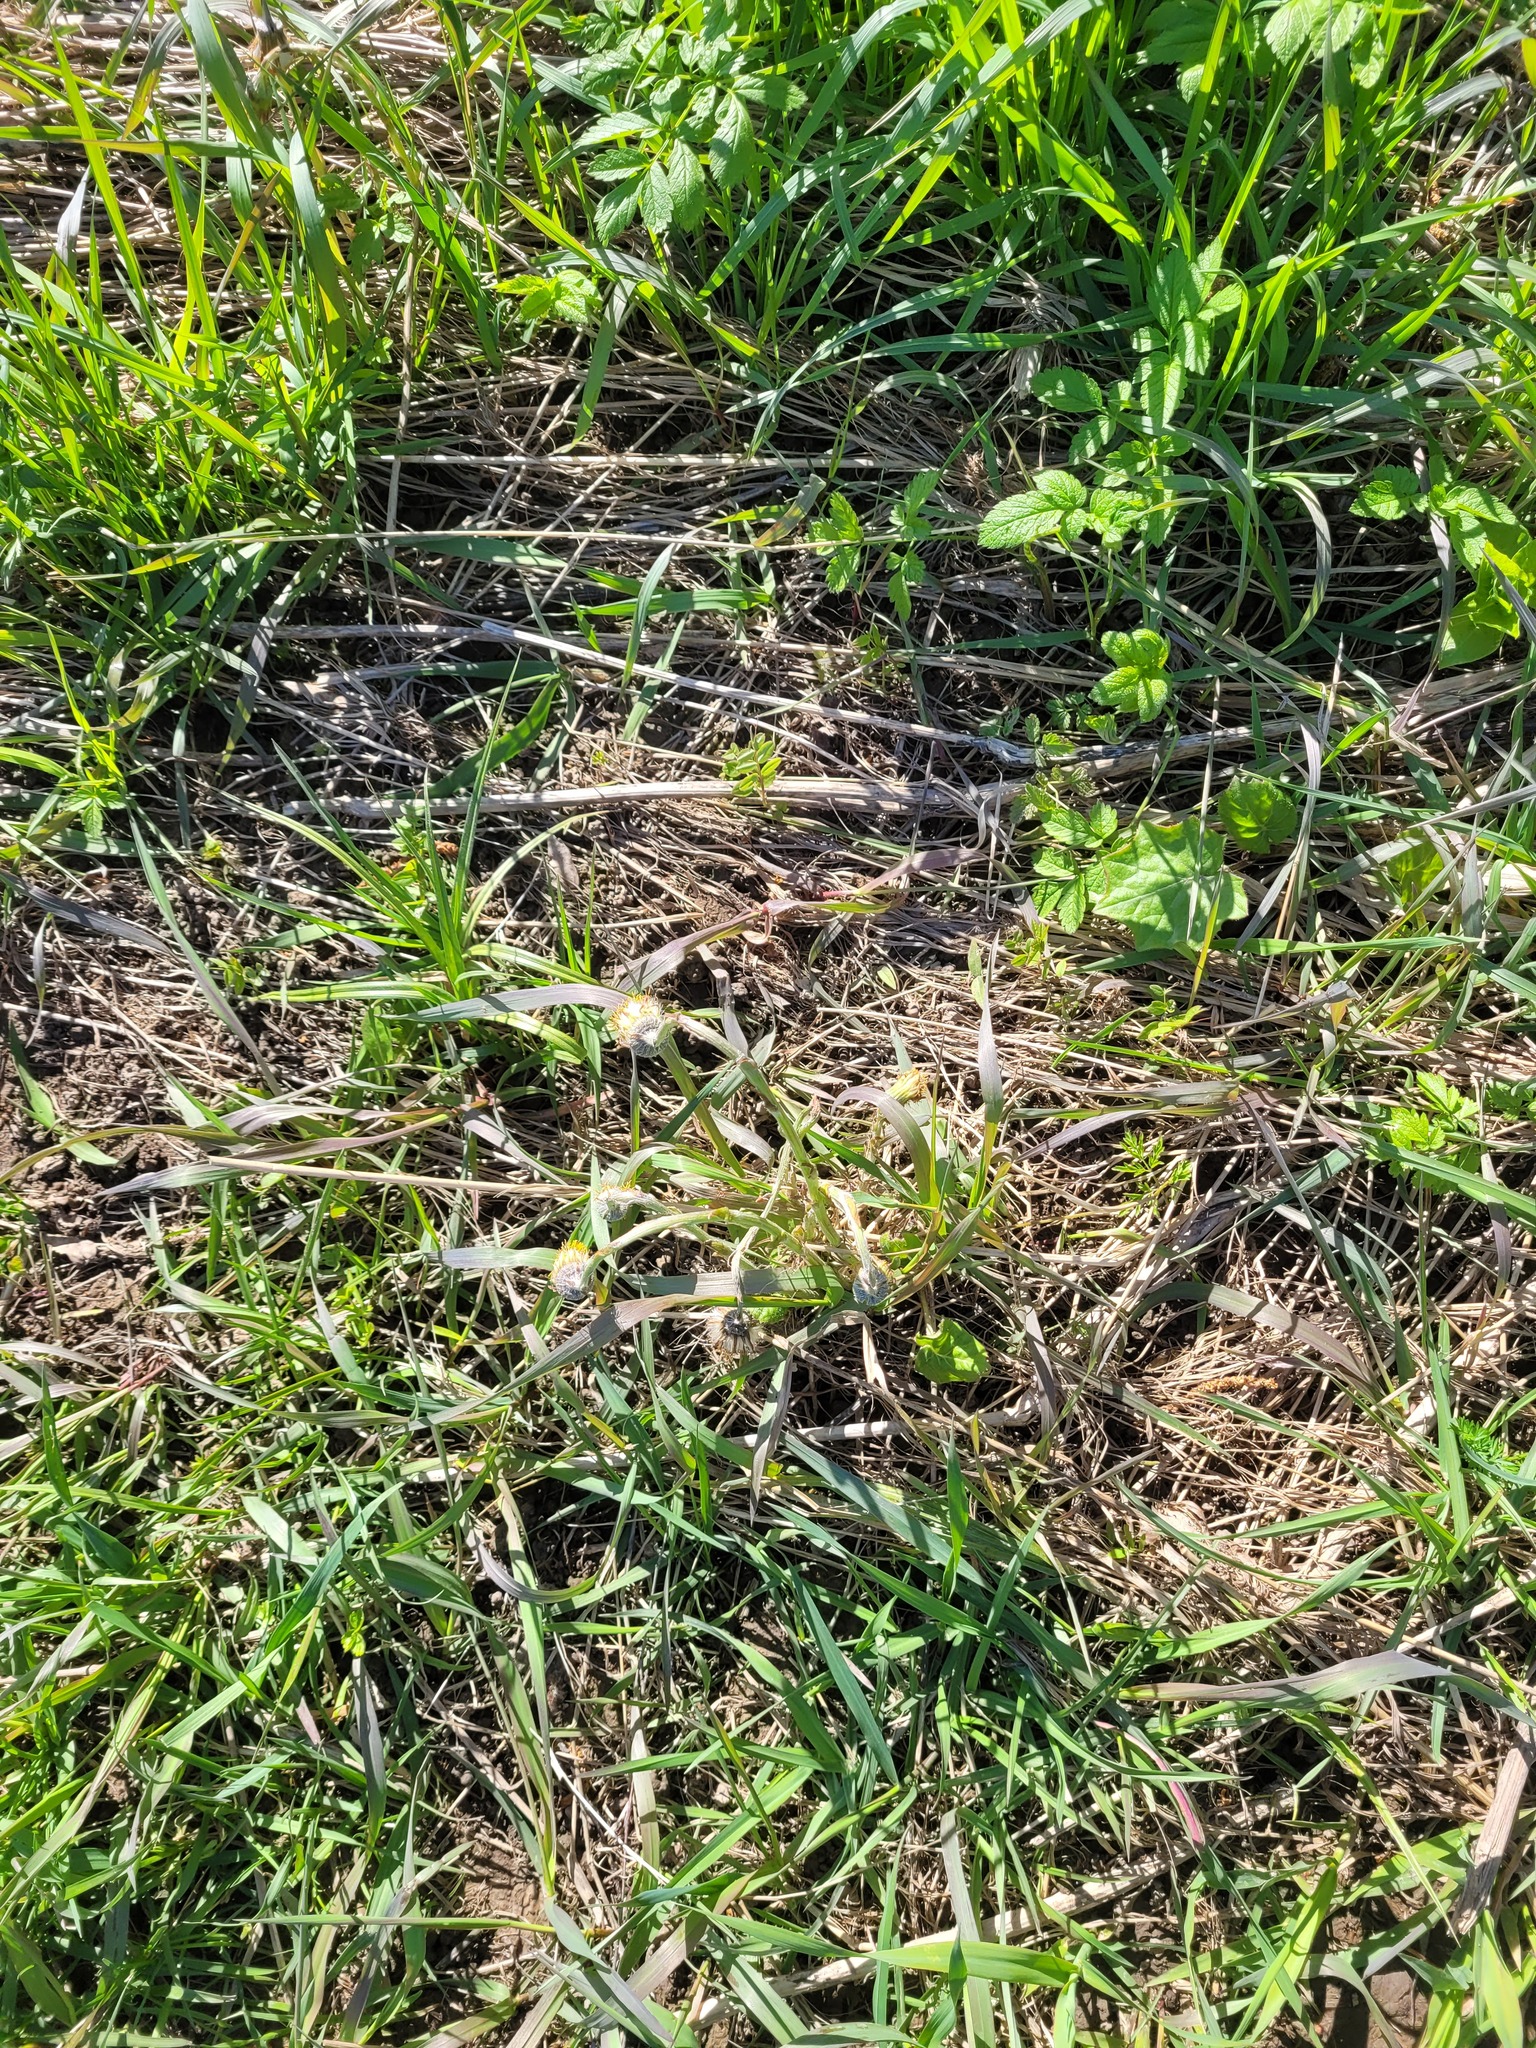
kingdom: Plantae
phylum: Tracheophyta
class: Magnoliopsida
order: Asterales
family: Asteraceae
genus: Tussilago
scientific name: Tussilago farfara
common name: Coltsfoot
